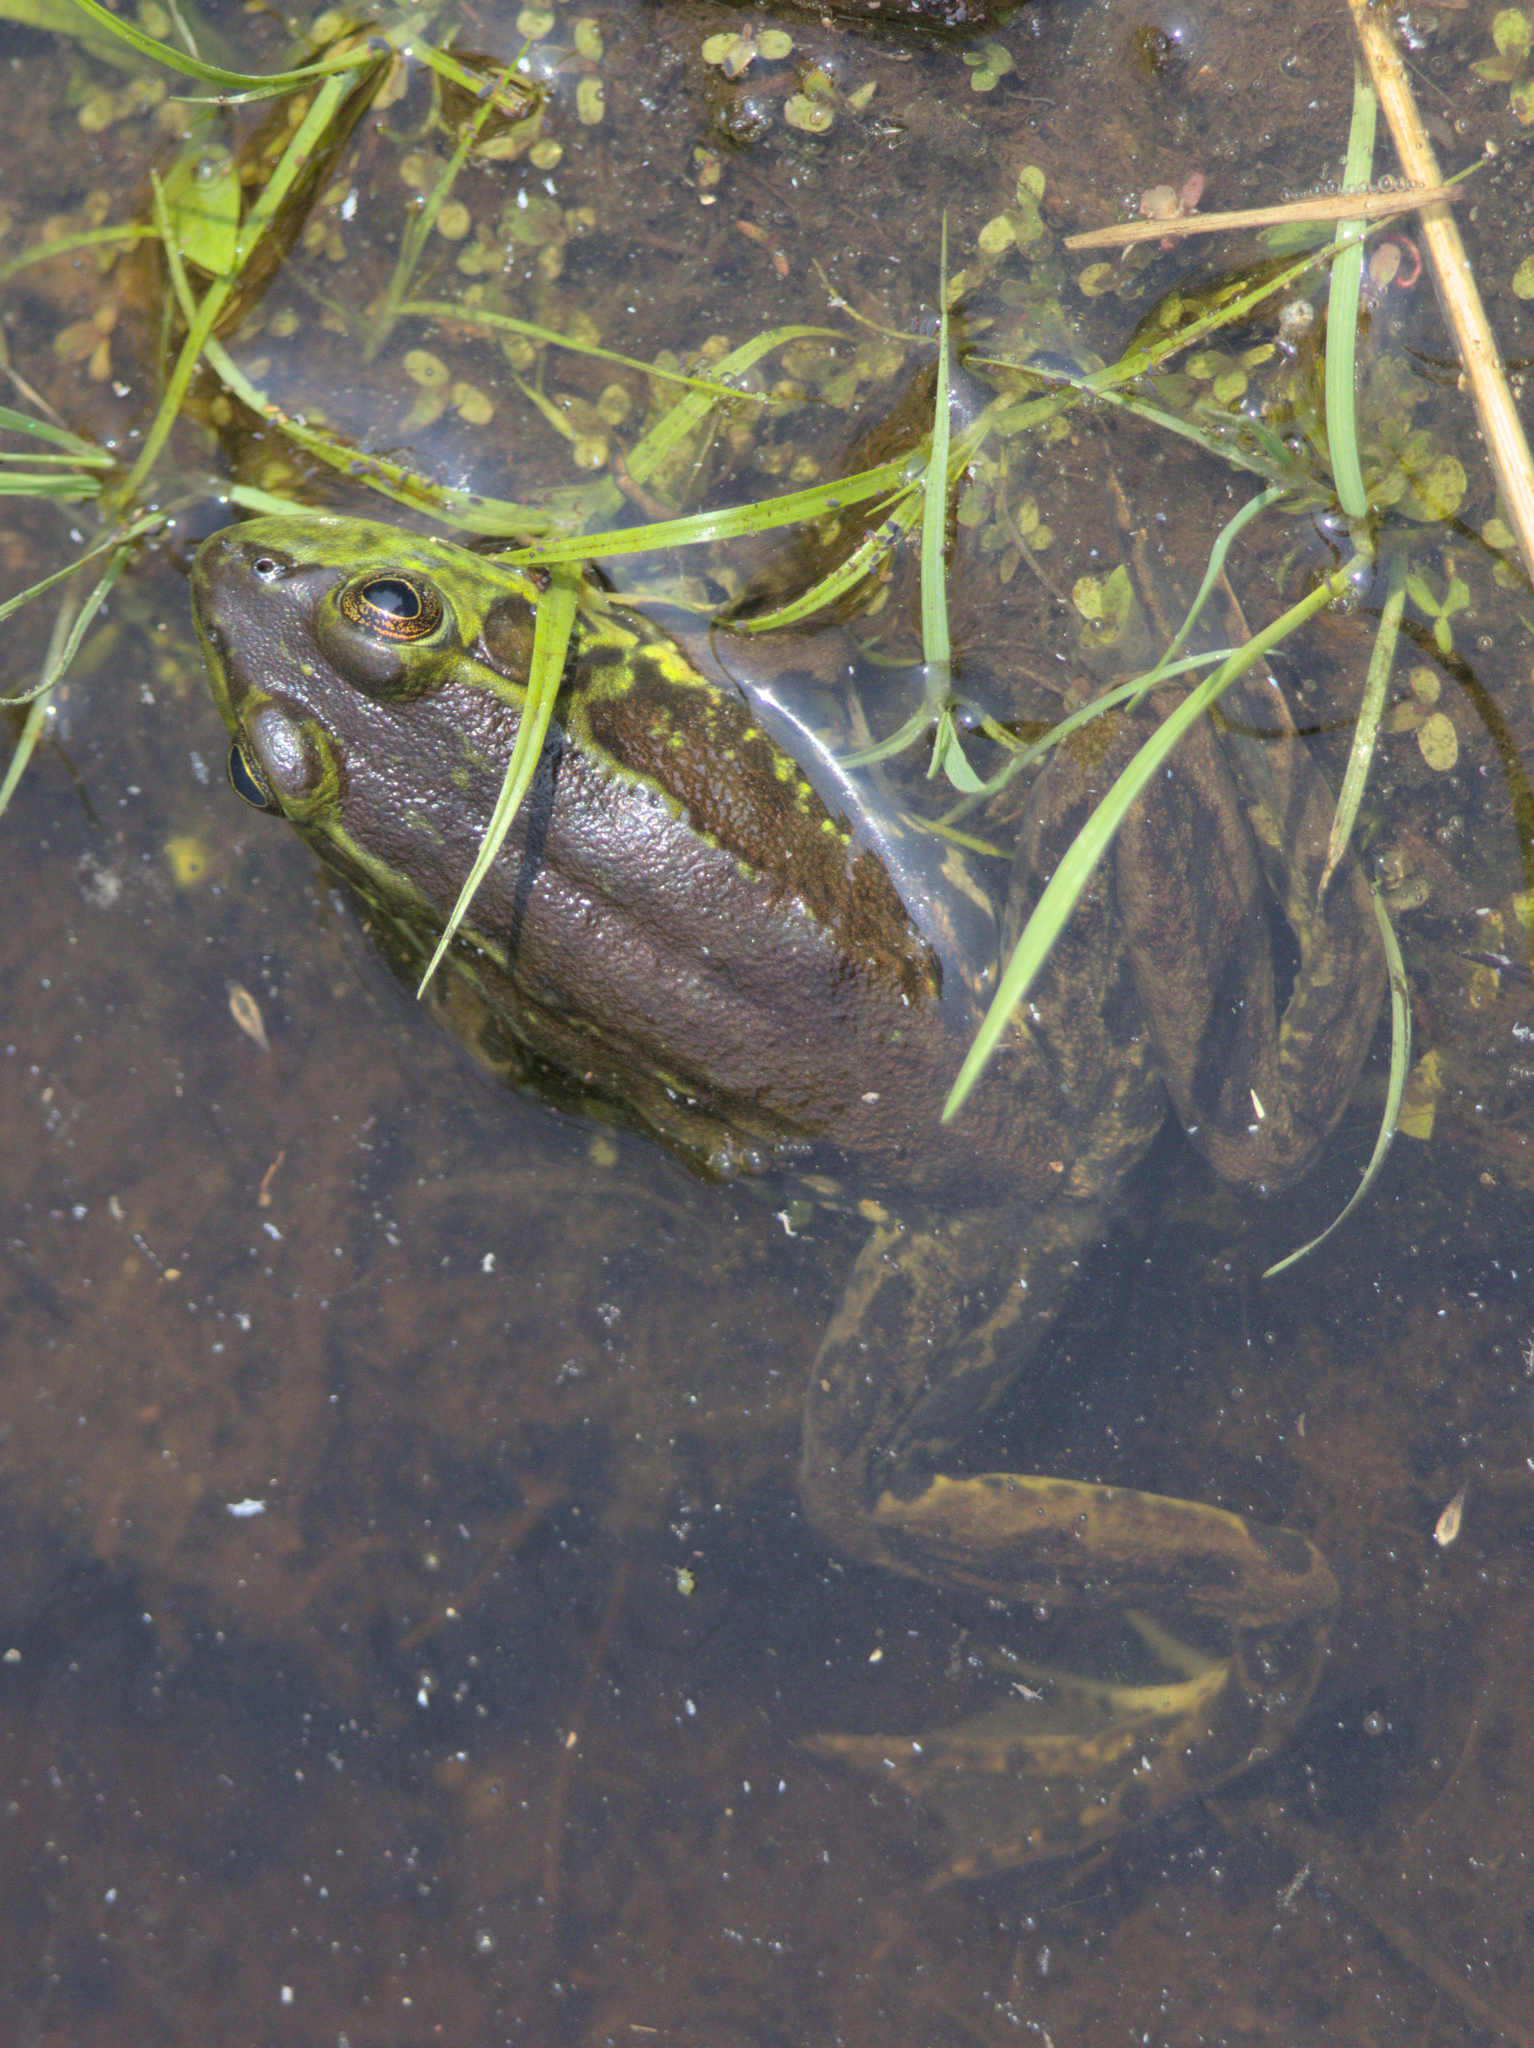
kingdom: Animalia
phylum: Chordata
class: Amphibia
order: Anura
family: Ranidae
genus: Lithobates
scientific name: Lithobates septentrionalis
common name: Mink frog
